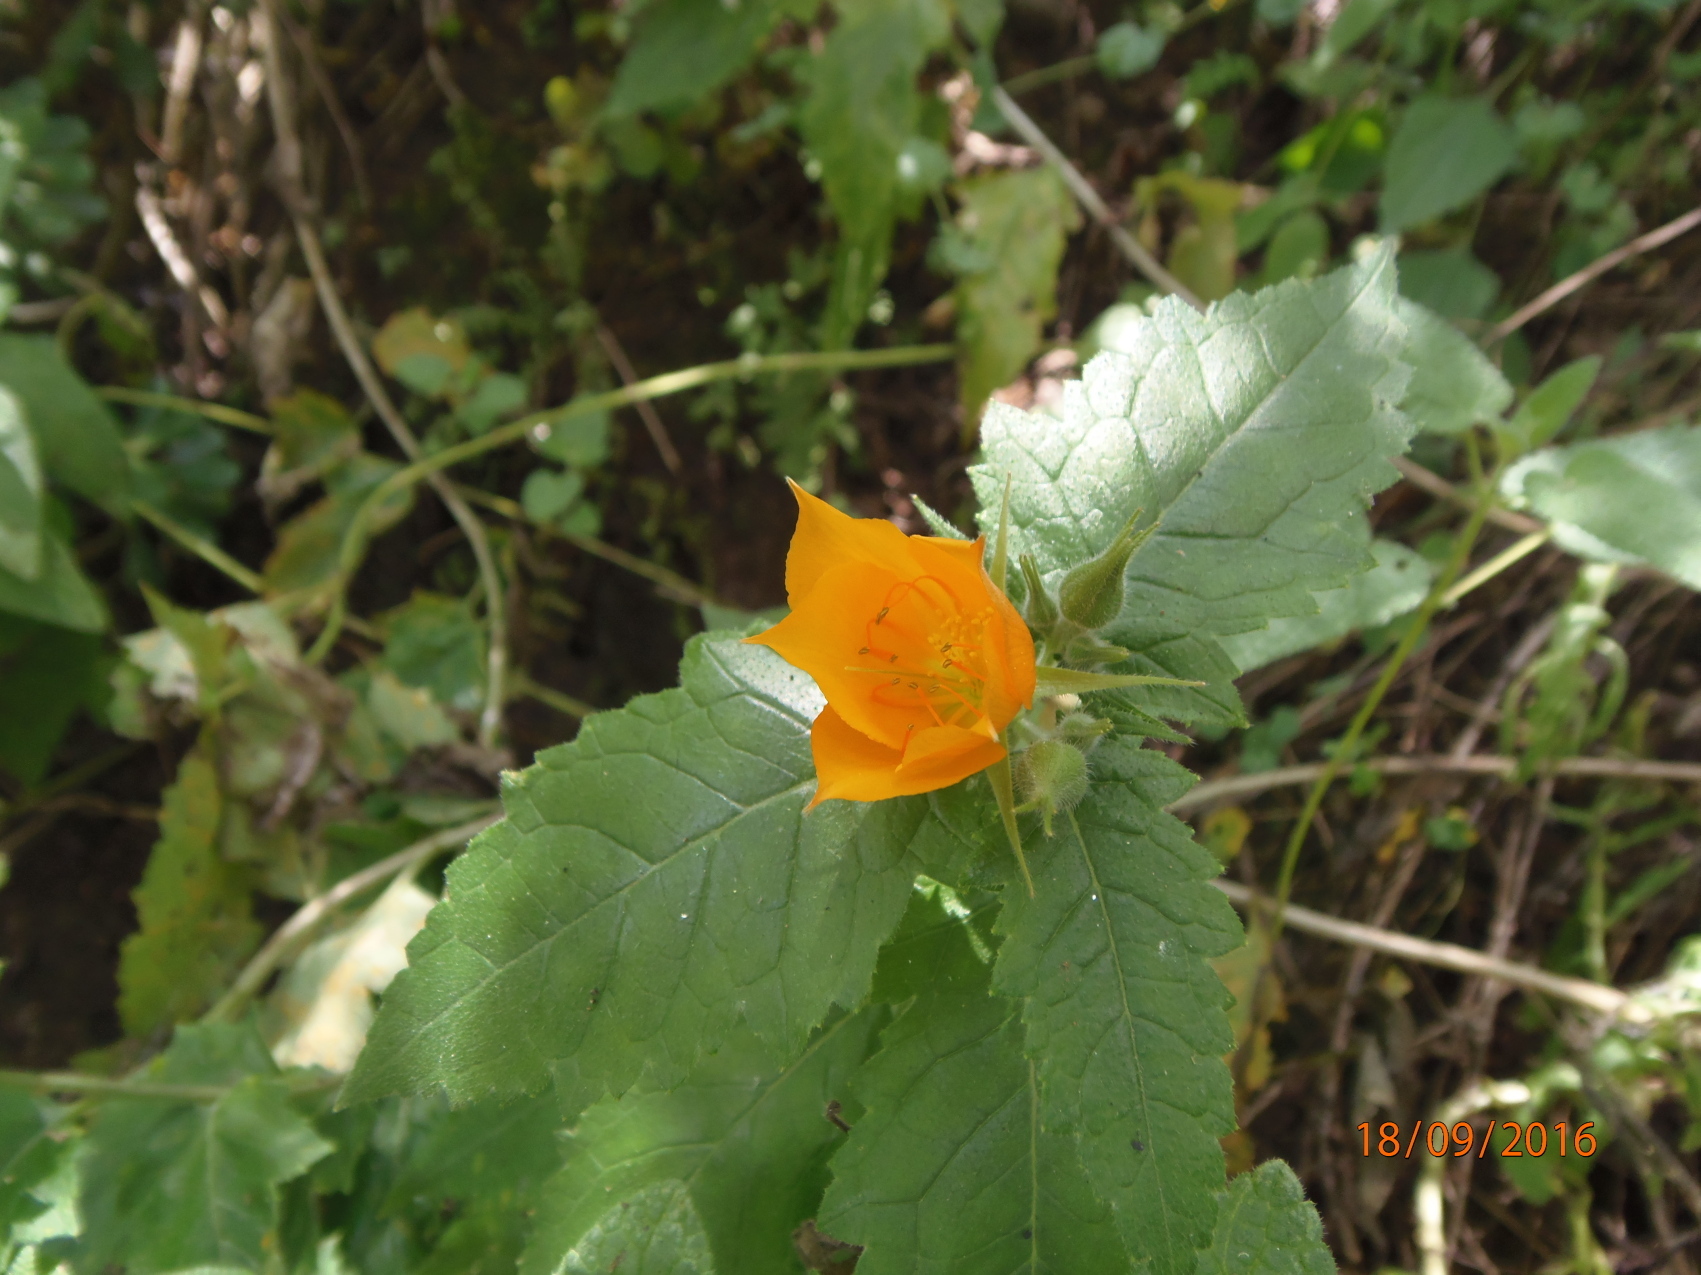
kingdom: Plantae
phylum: Tracheophyta
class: Magnoliopsida
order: Cornales
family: Loasaceae
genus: Mentzelia
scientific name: Mentzelia hispida
